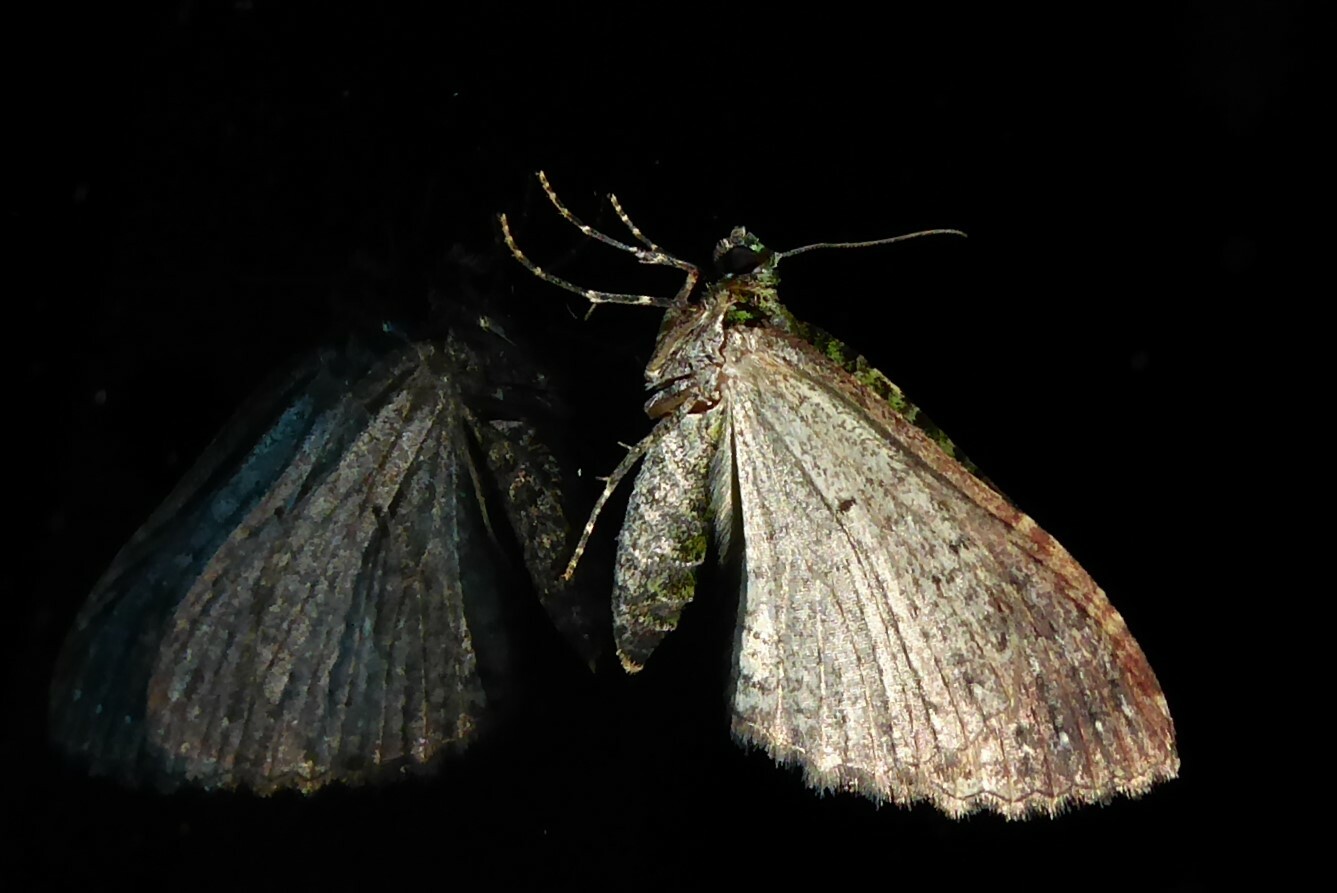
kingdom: Animalia
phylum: Arthropoda
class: Insecta
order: Lepidoptera
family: Geometridae
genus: Austrocidaria
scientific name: Austrocidaria similata
